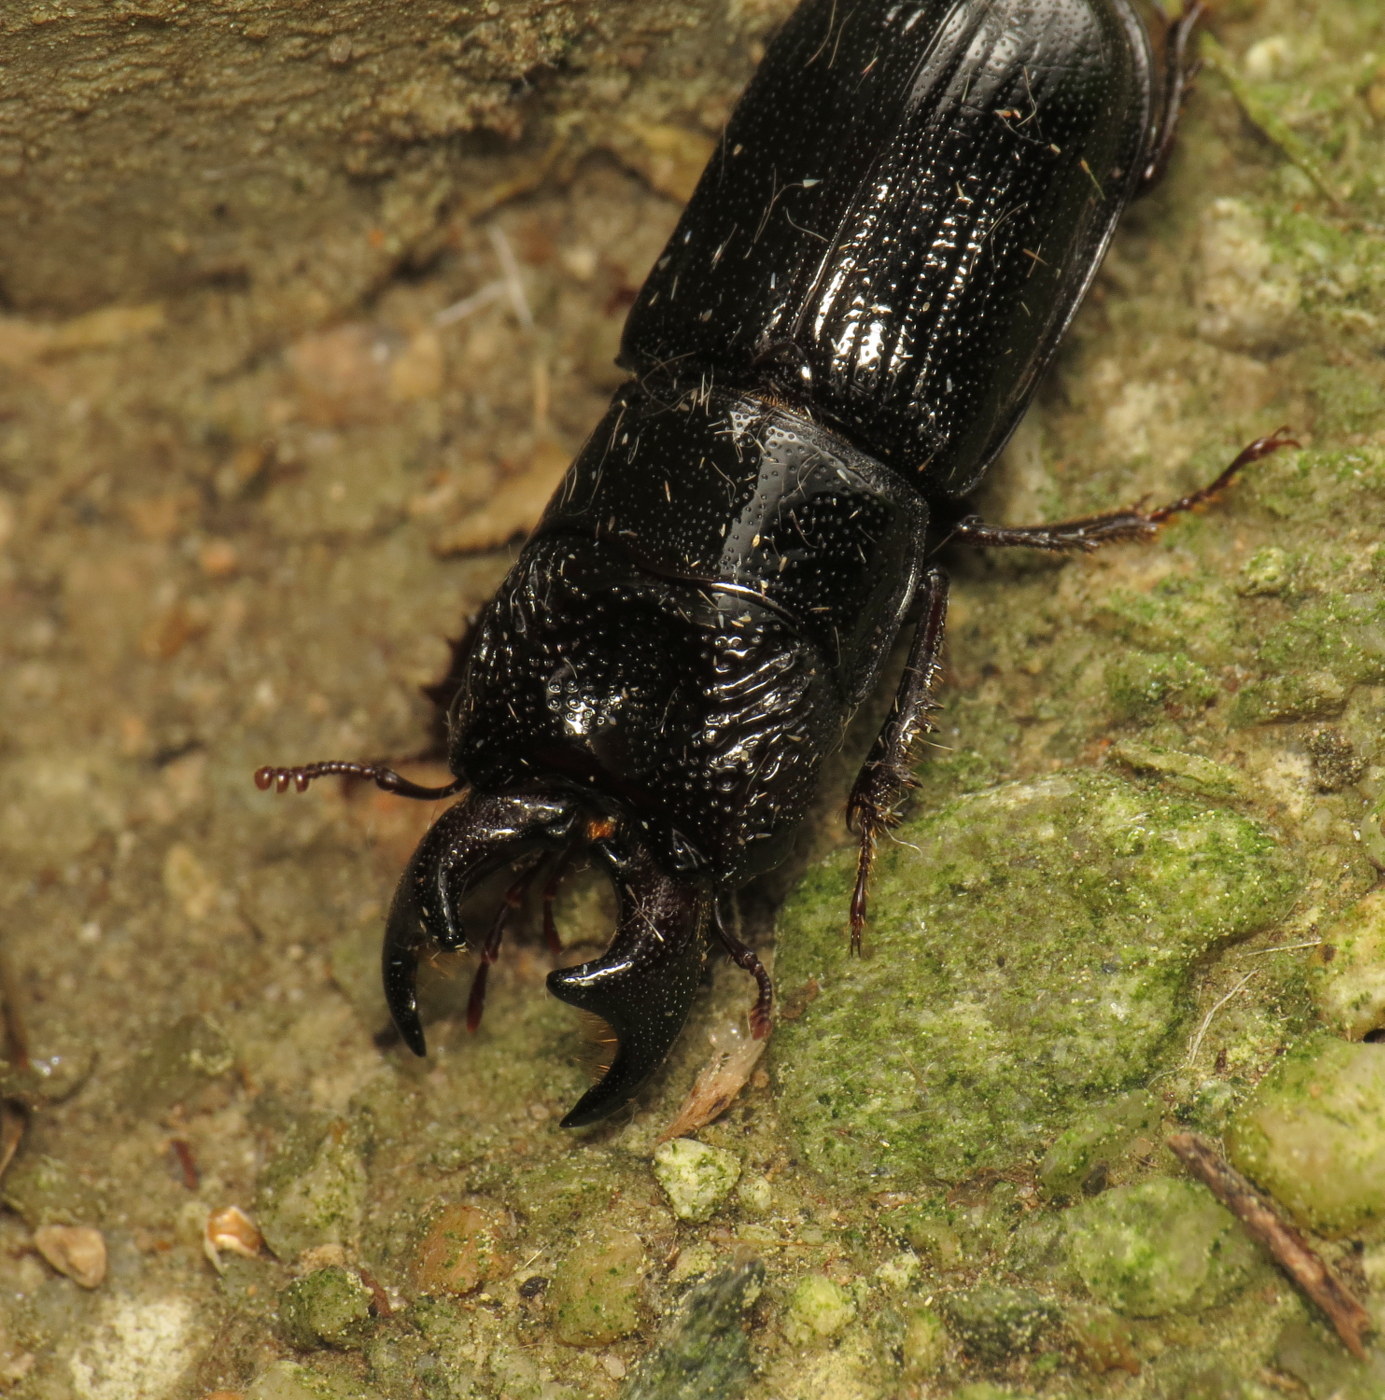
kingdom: Animalia
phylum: Arthropoda
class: Insecta
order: Coleoptera
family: Lucanidae
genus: Ceruchus
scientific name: Ceruchus piceus
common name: Red-rot decay stag beetle
